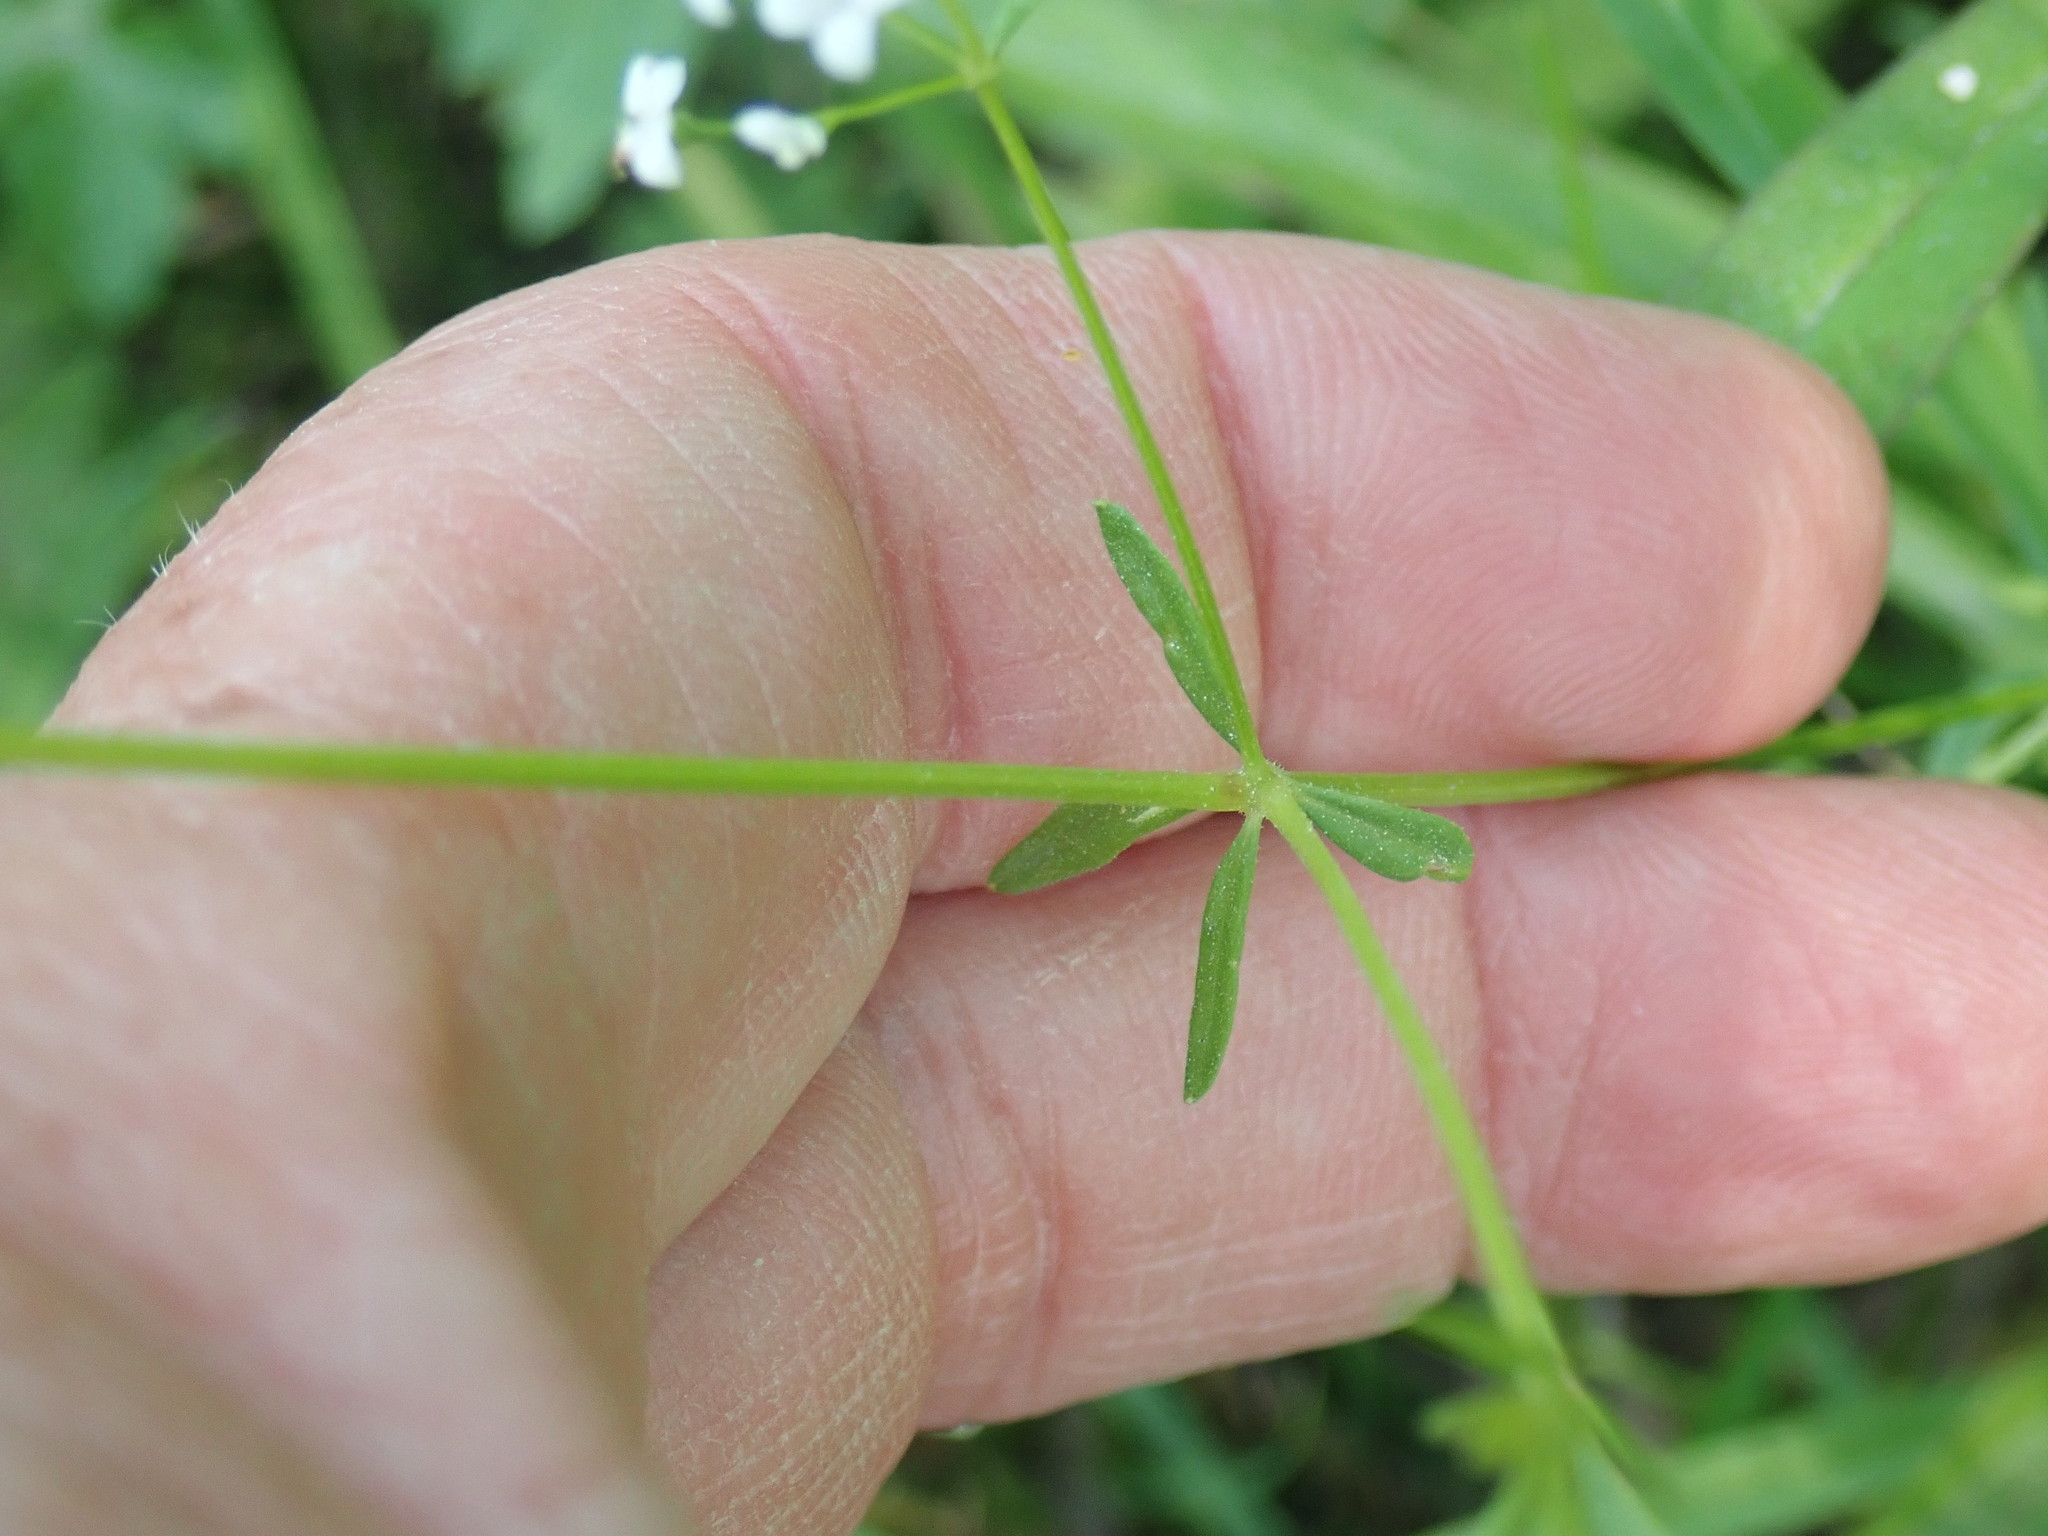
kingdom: Plantae
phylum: Tracheophyta
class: Magnoliopsida
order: Gentianales
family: Rubiaceae
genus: Galium
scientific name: Galium palustre
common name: Common marsh-bedstraw
